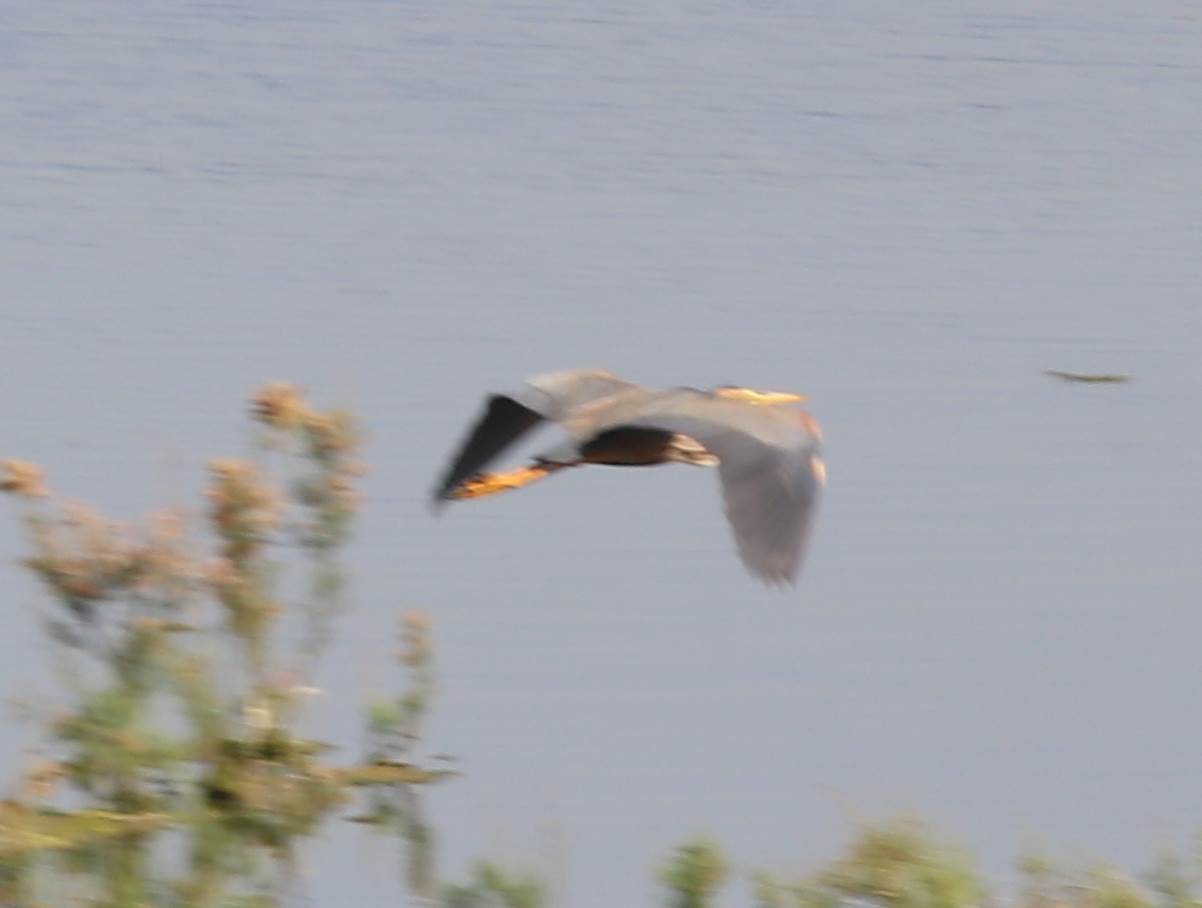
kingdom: Animalia
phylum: Chordata
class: Aves
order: Pelecaniformes
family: Ardeidae
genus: Ardea
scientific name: Ardea purpurea
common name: Purple heron
